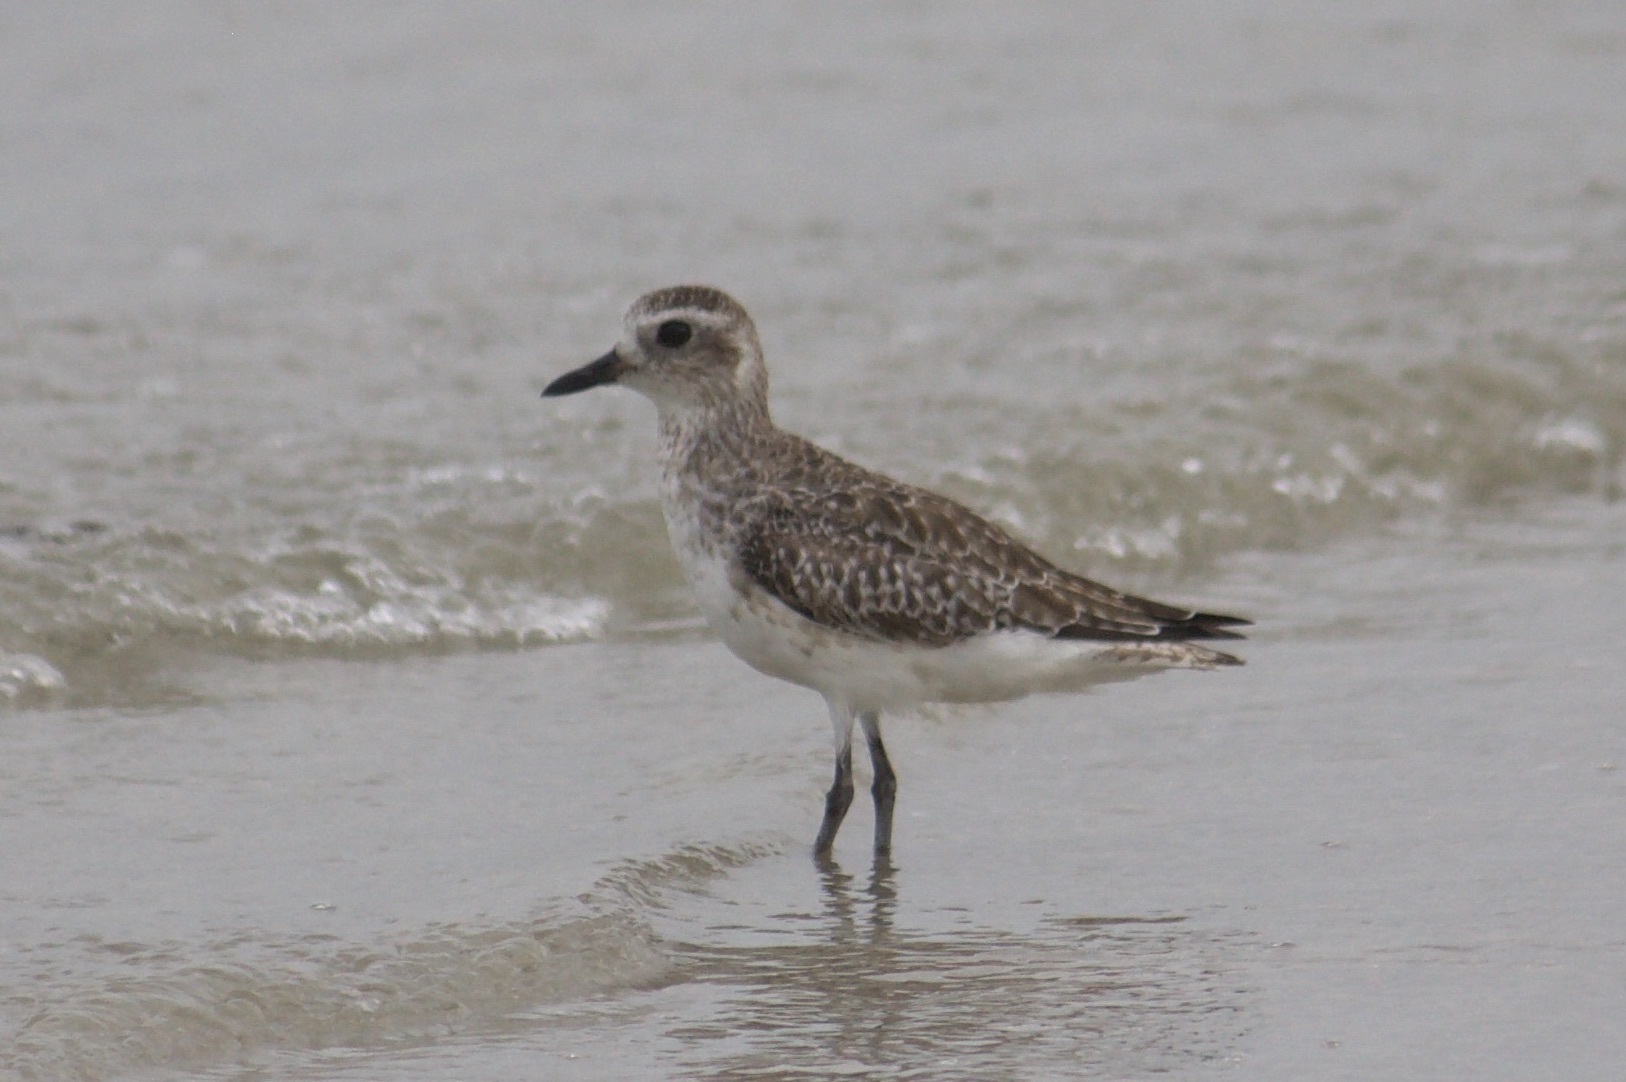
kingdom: Animalia
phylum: Chordata
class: Aves
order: Charadriiformes
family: Charadriidae
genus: Pluvialis
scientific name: Pluvialis squatarola
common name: Grey plover
